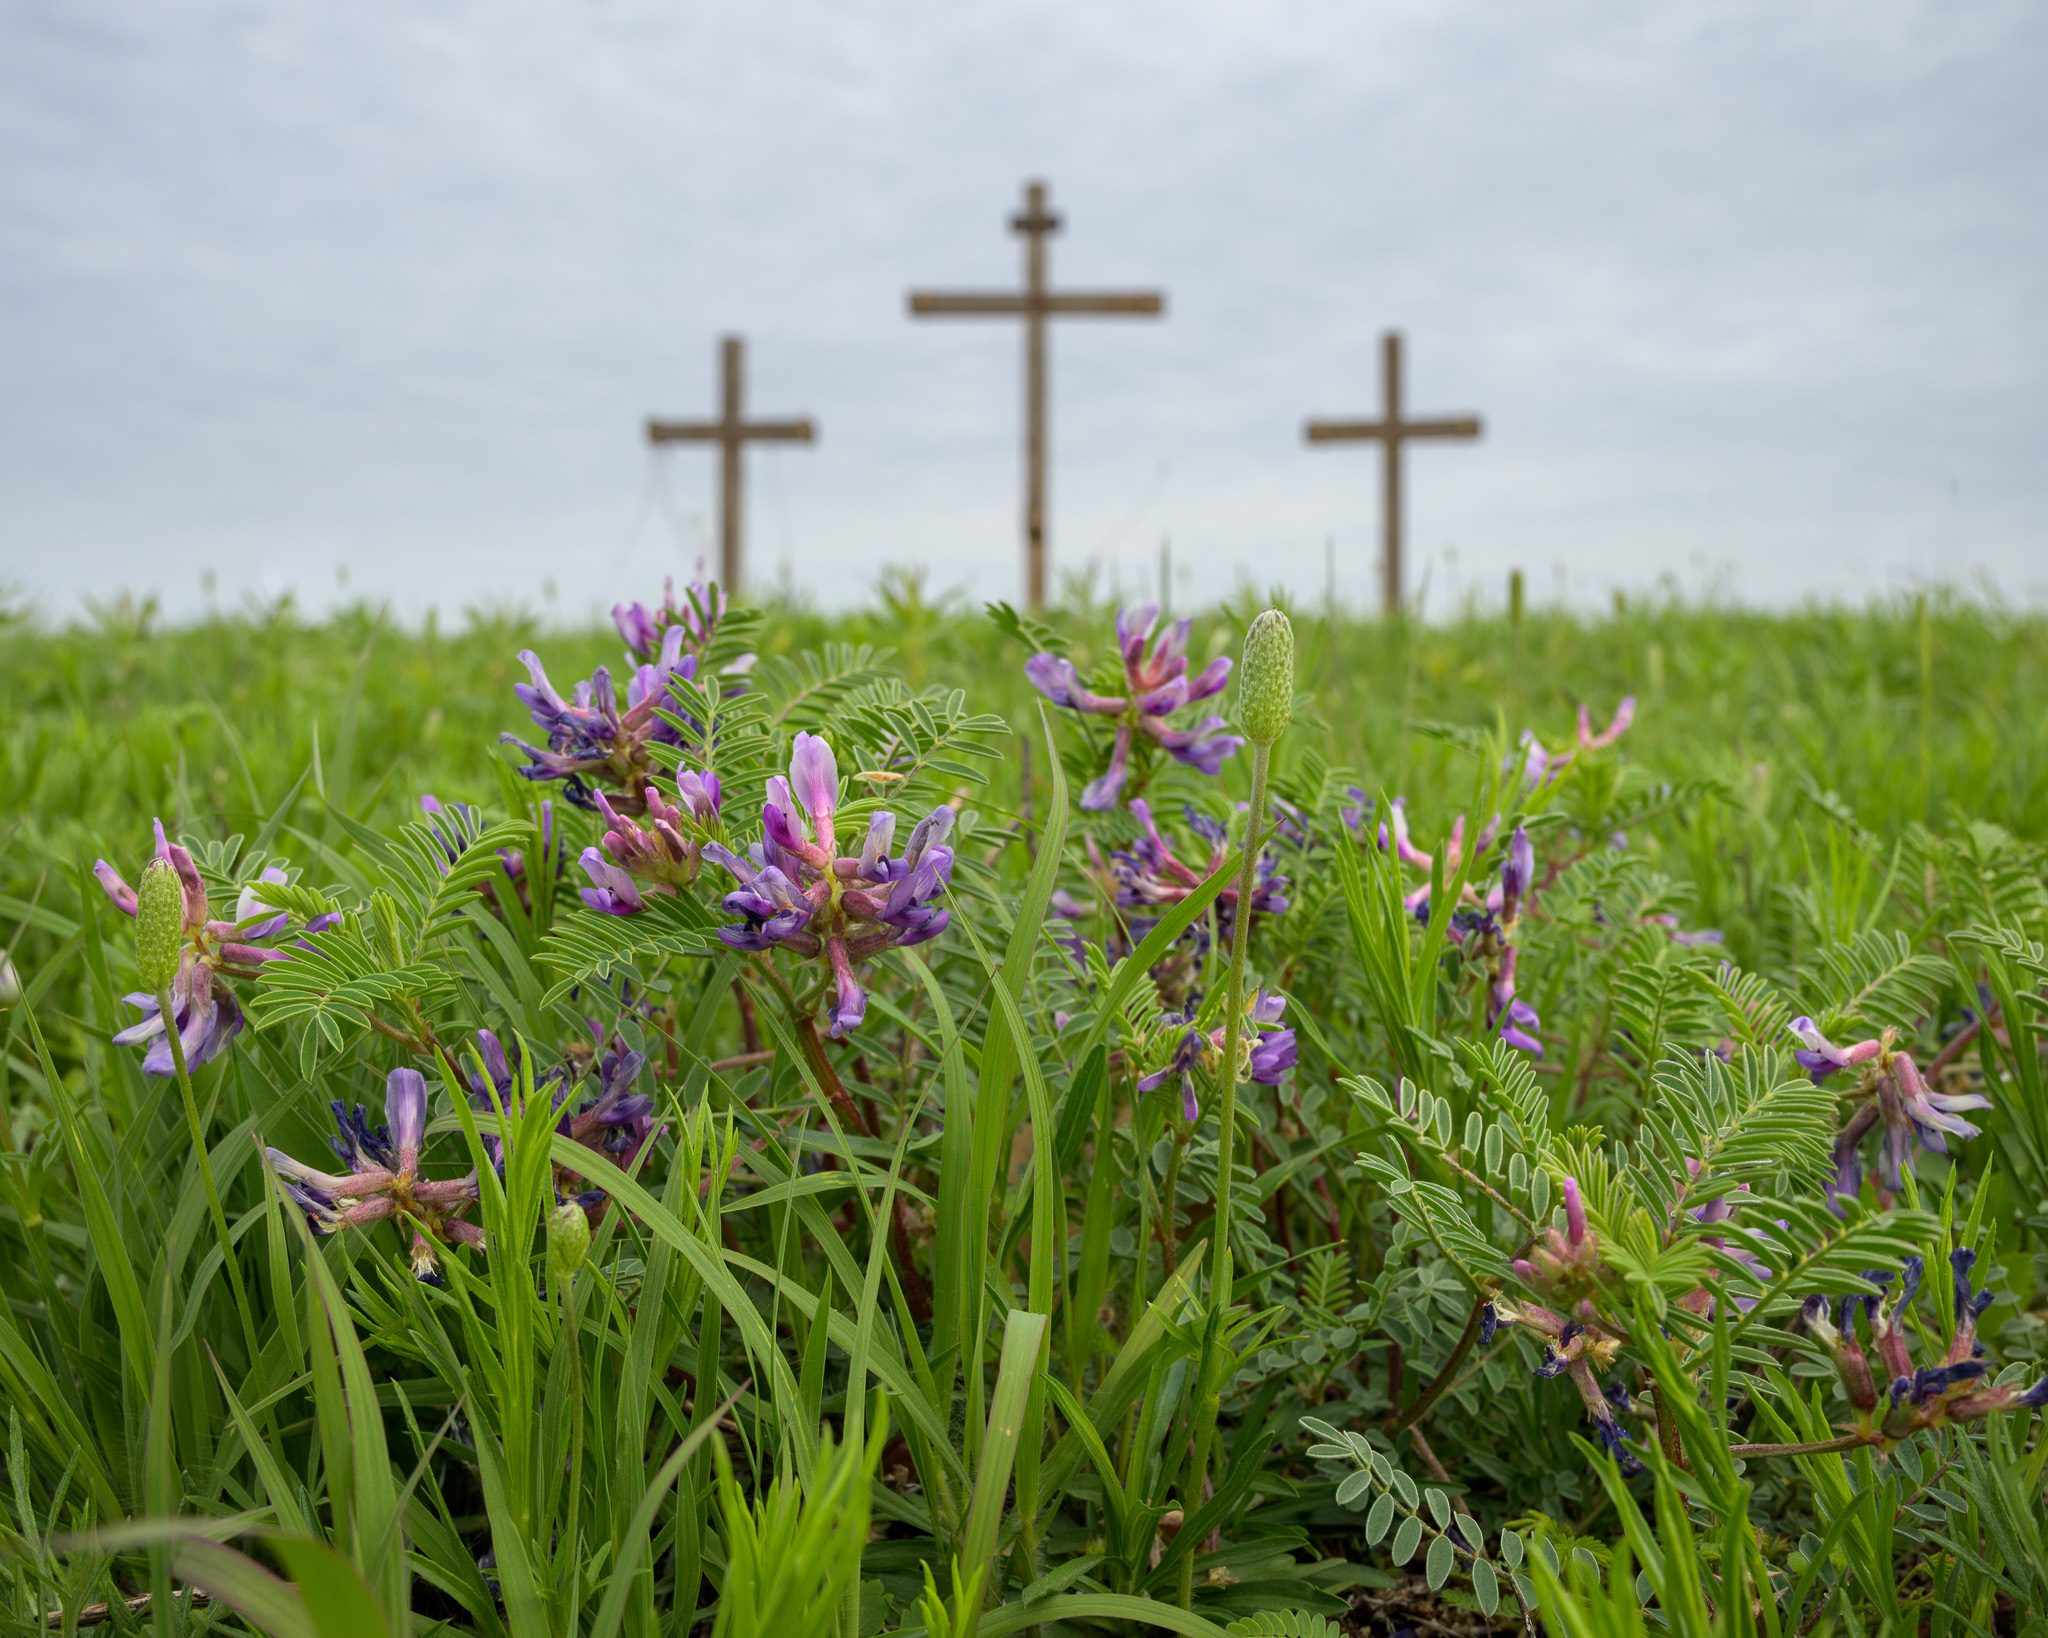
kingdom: Plantae
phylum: Tracheophyta
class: Magnoliopsida
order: Fabales
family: Fabaceae
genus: Astragalus
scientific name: Astragalus crassicarpus
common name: Ground-plum milk-vetch
